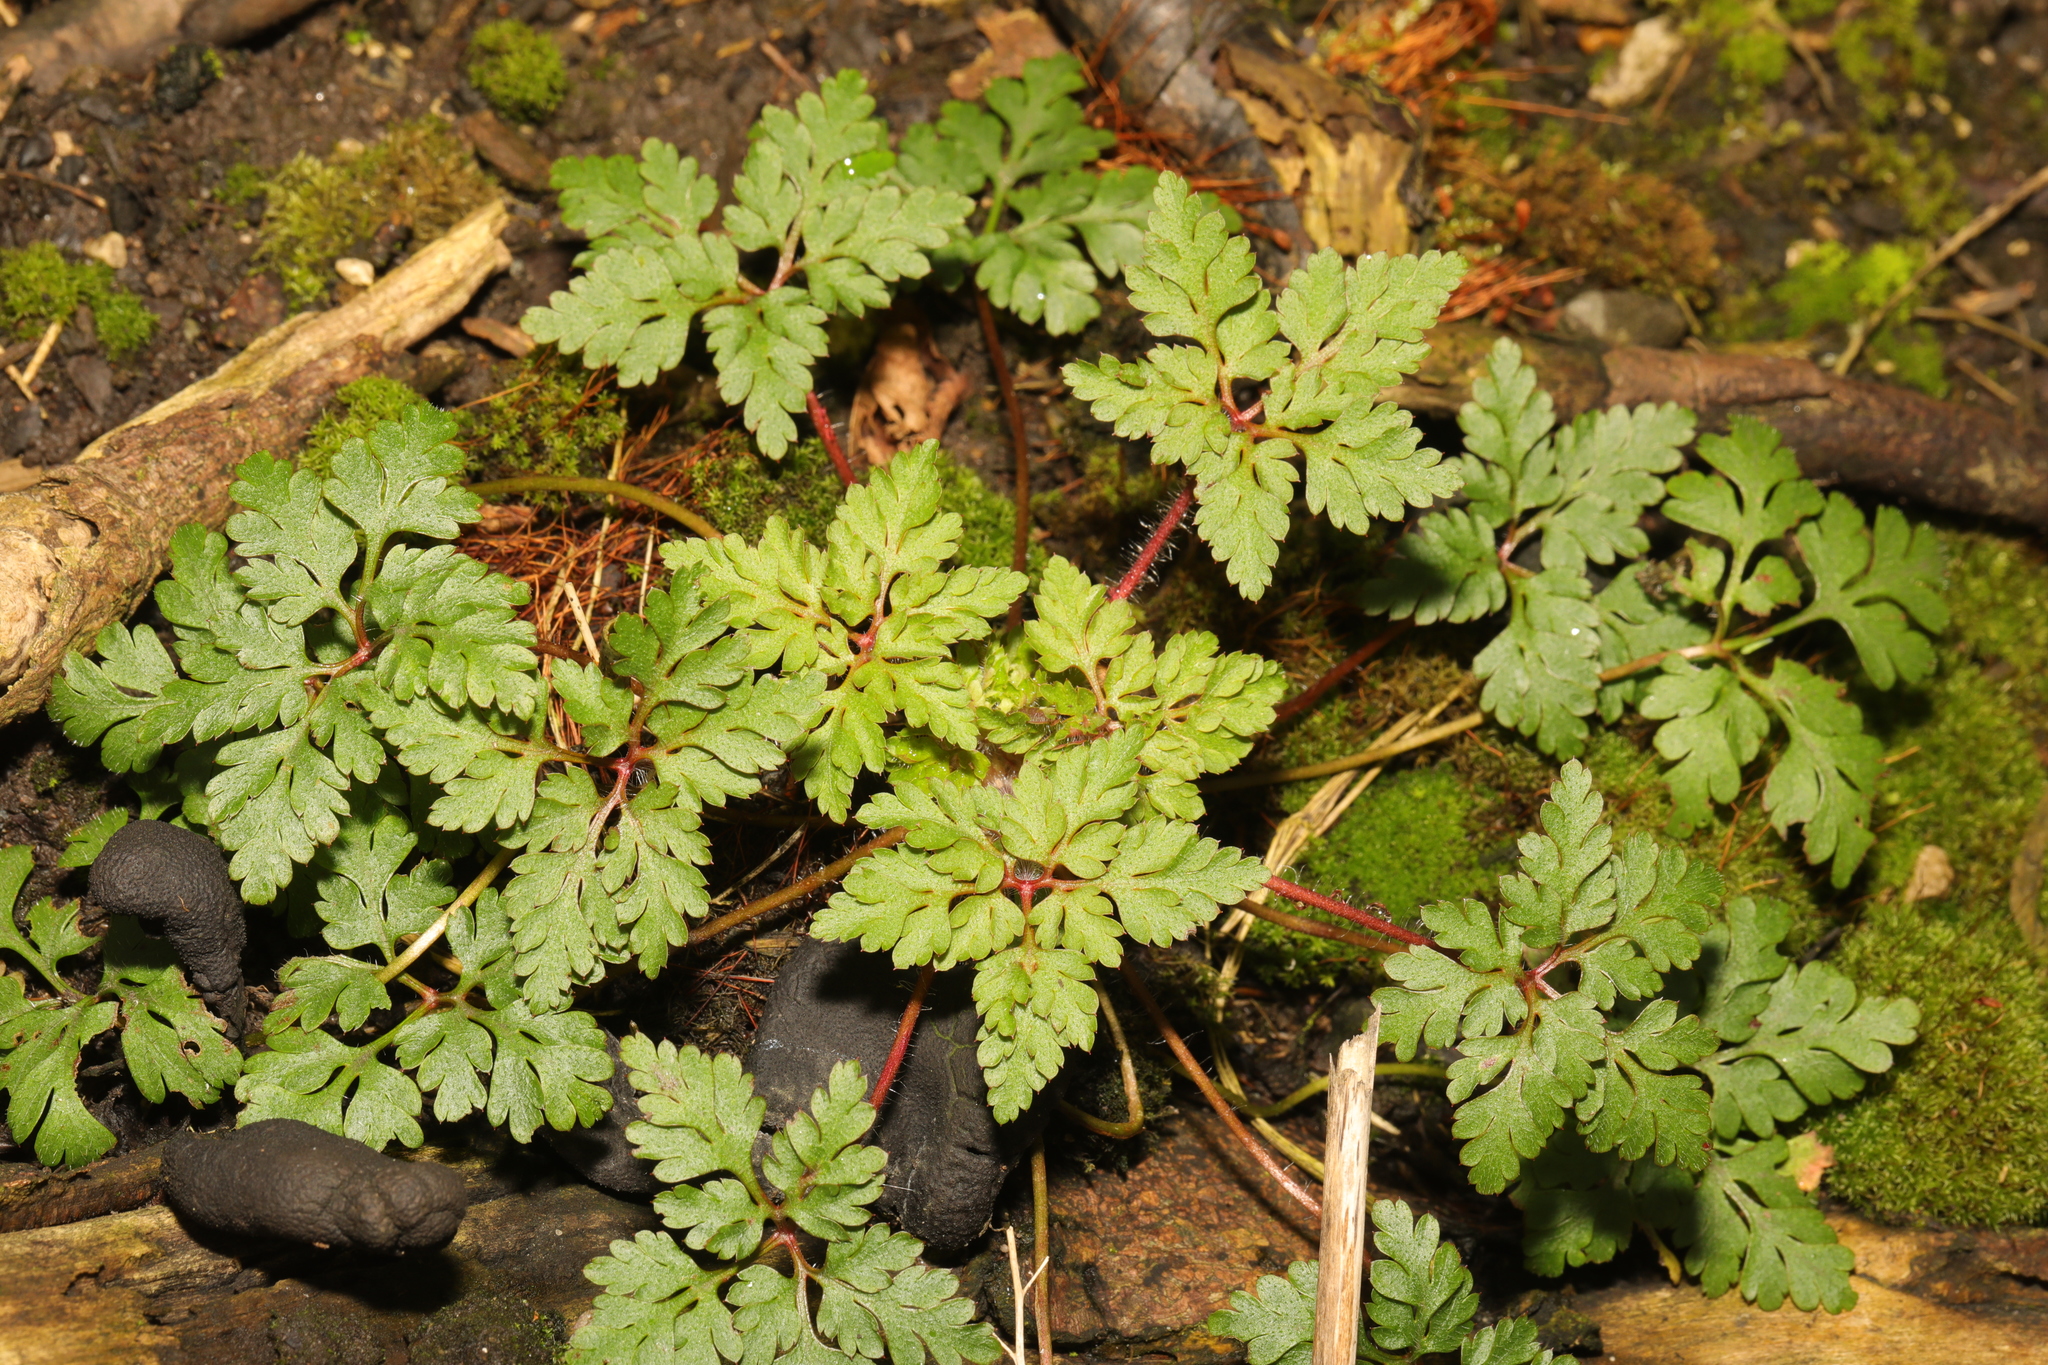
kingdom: Plantae
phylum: Tracheophyta
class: Magnoliopsida
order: Geraniales
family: Geraniaceae
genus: Geranium
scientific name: Geranium robertianum
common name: Herb-robert
